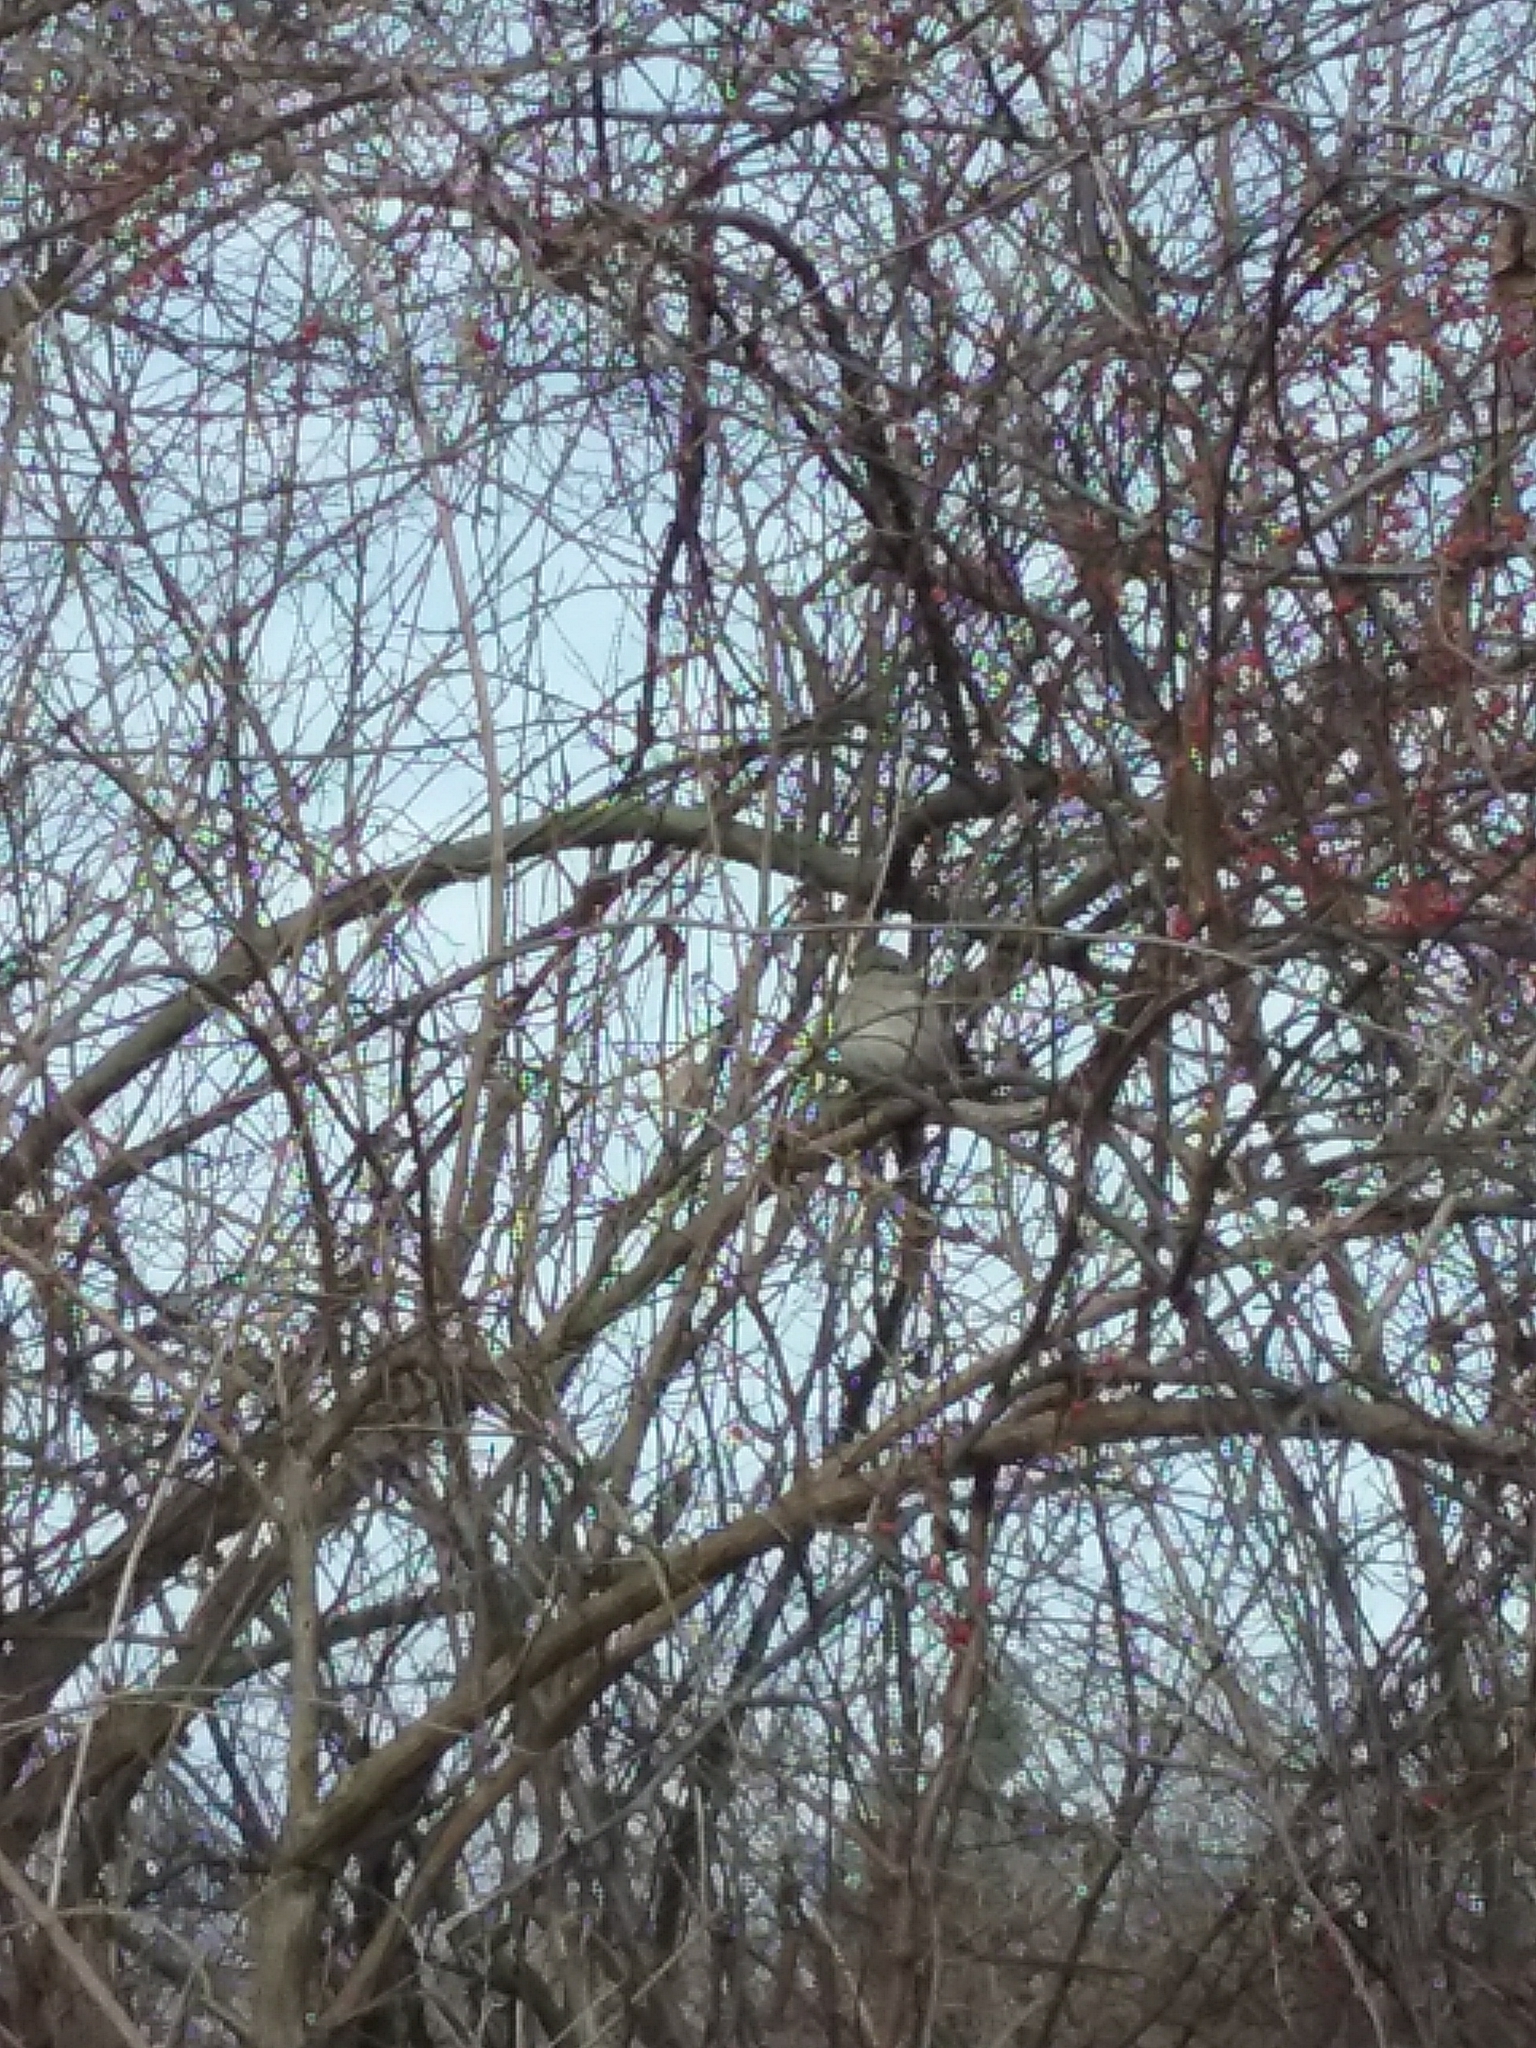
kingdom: Animalia
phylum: Chordata
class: Aves
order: Passeriformes
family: Mimidae
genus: Mimus
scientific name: Mimus polyglottos
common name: Northern mockingbird
